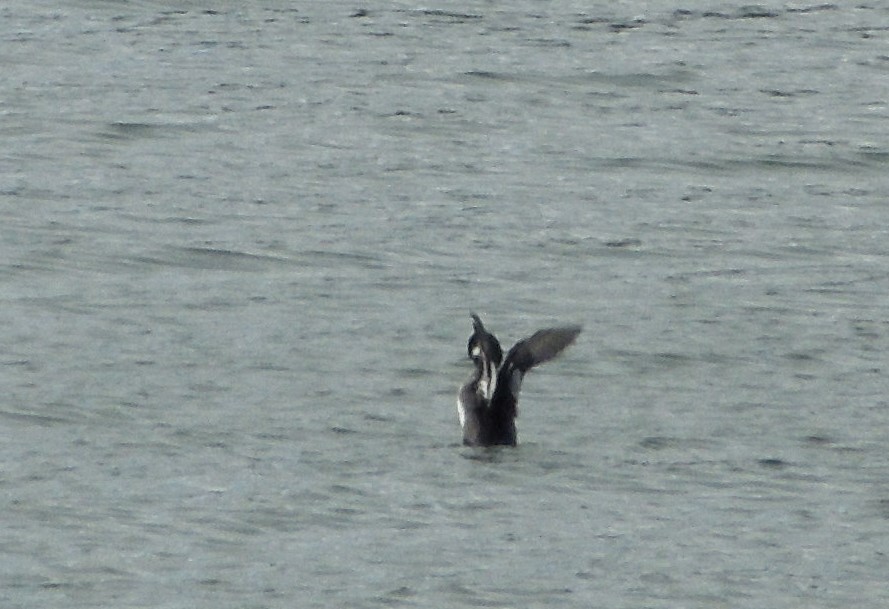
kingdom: Animalia
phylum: Chordata
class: Aves
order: Anseriformes
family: Anatidae
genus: Bucephala
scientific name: Bucephala albeola
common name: Bufflehead
